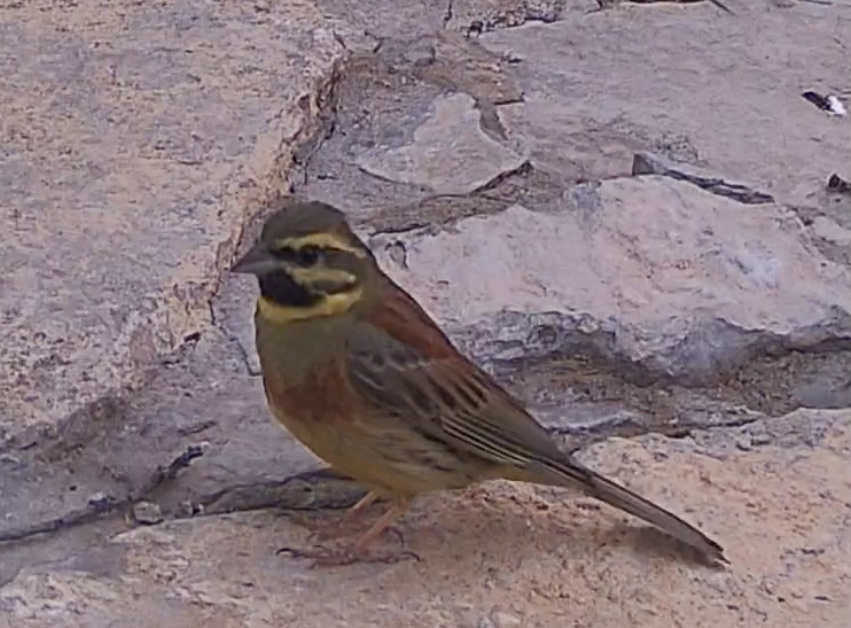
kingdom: Animalia
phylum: Chordata
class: Aves
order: Passeriformes
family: Emberizidae
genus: Emberiza
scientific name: Emberiza cirlus
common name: Cirl bunting
